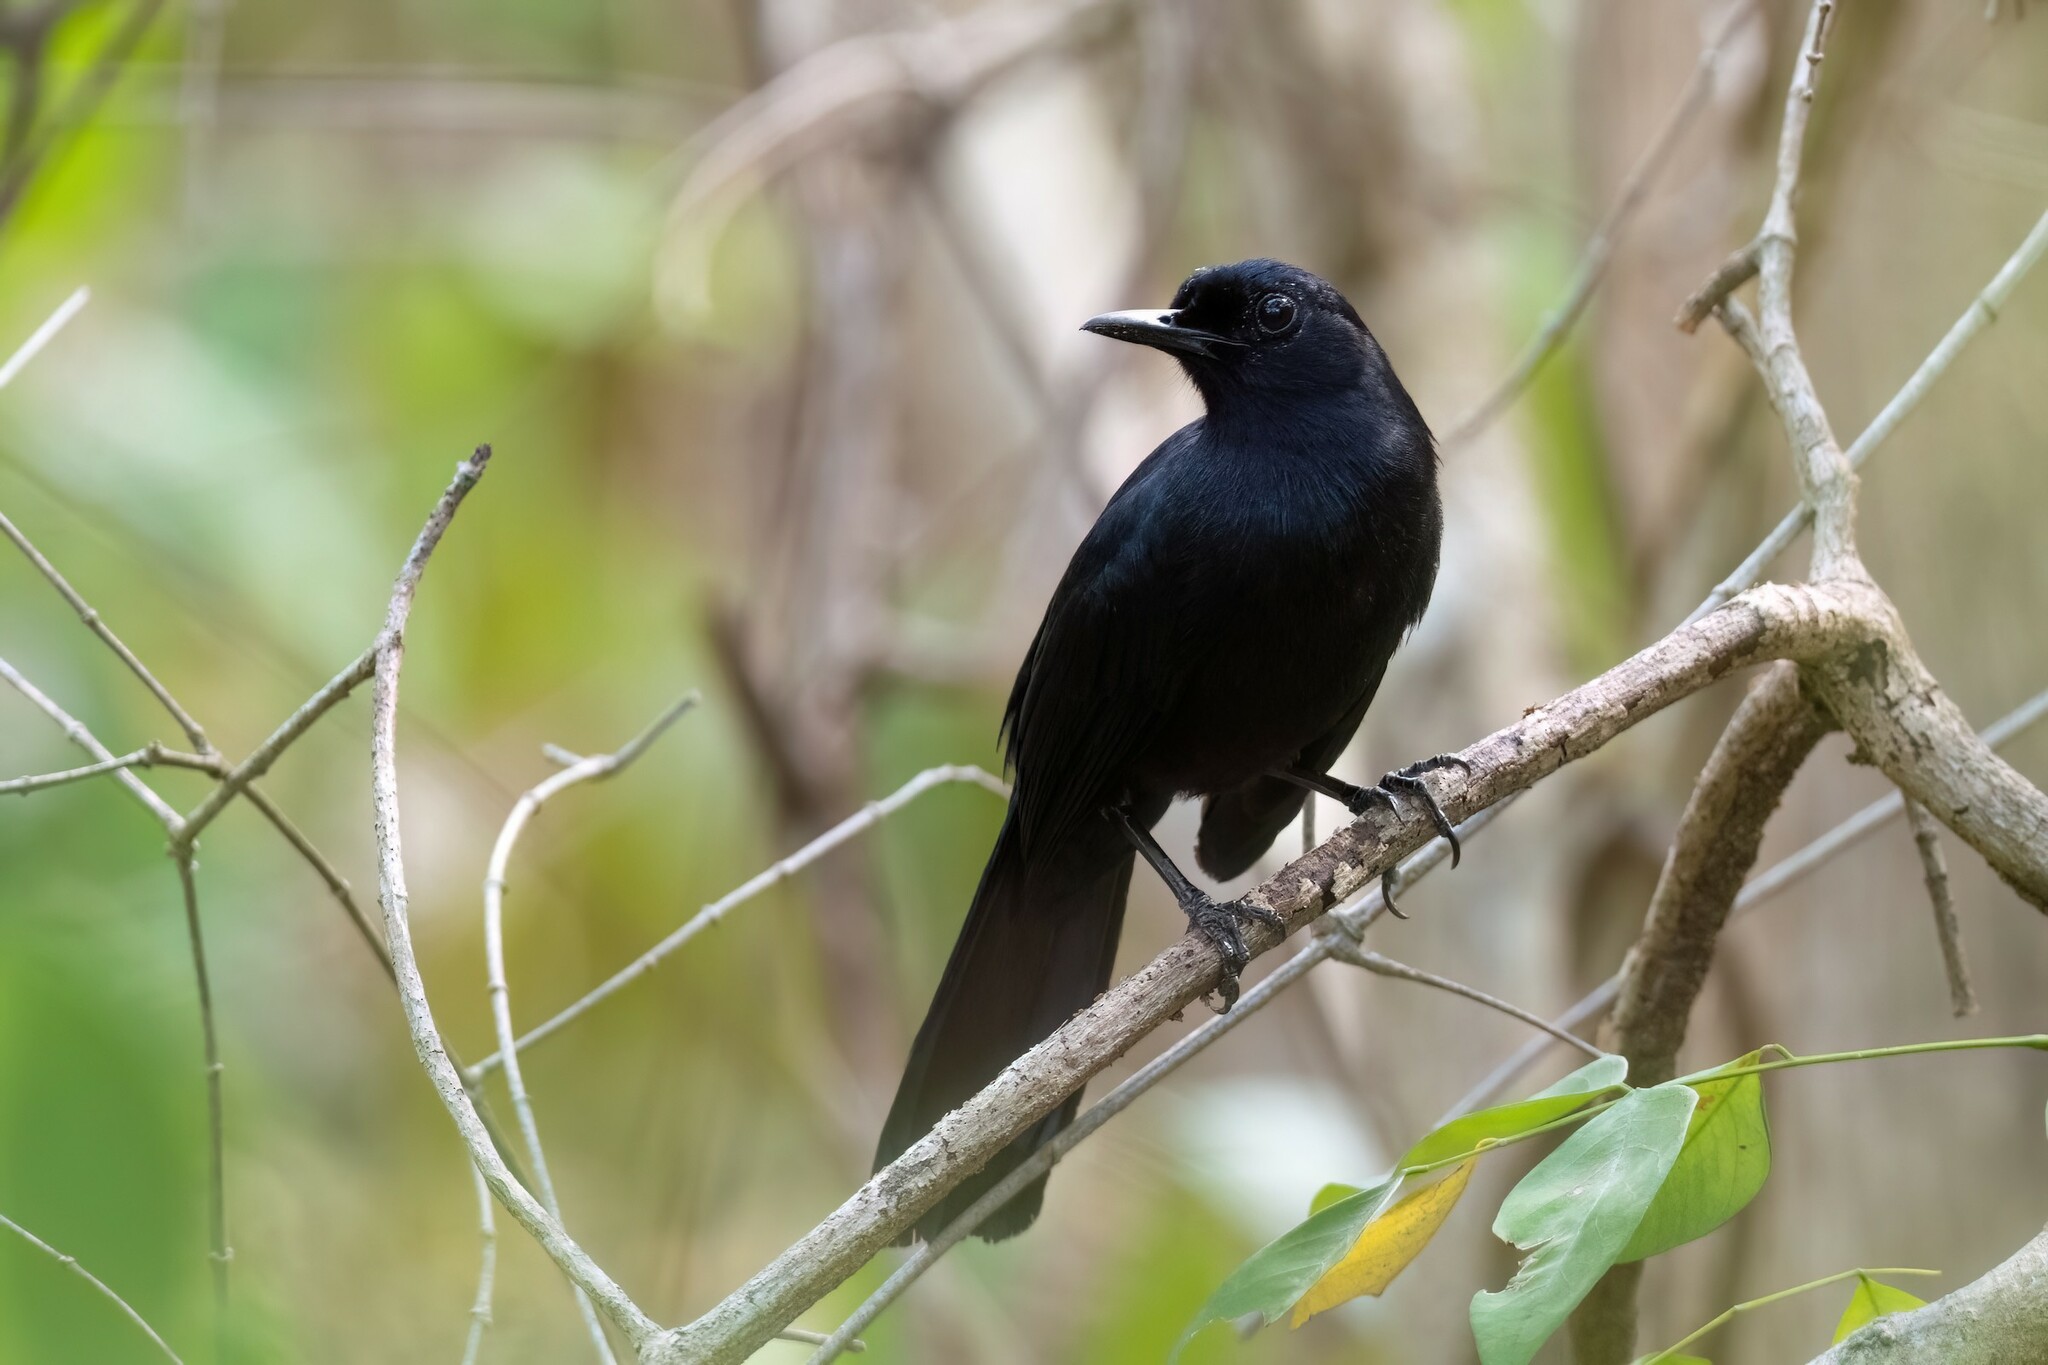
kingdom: Animalia
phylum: Chordata
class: Aves
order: Passeriformes
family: Mimidae
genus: Melanoptila
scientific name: Melanoptila glabrirostris
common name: Black catbird
